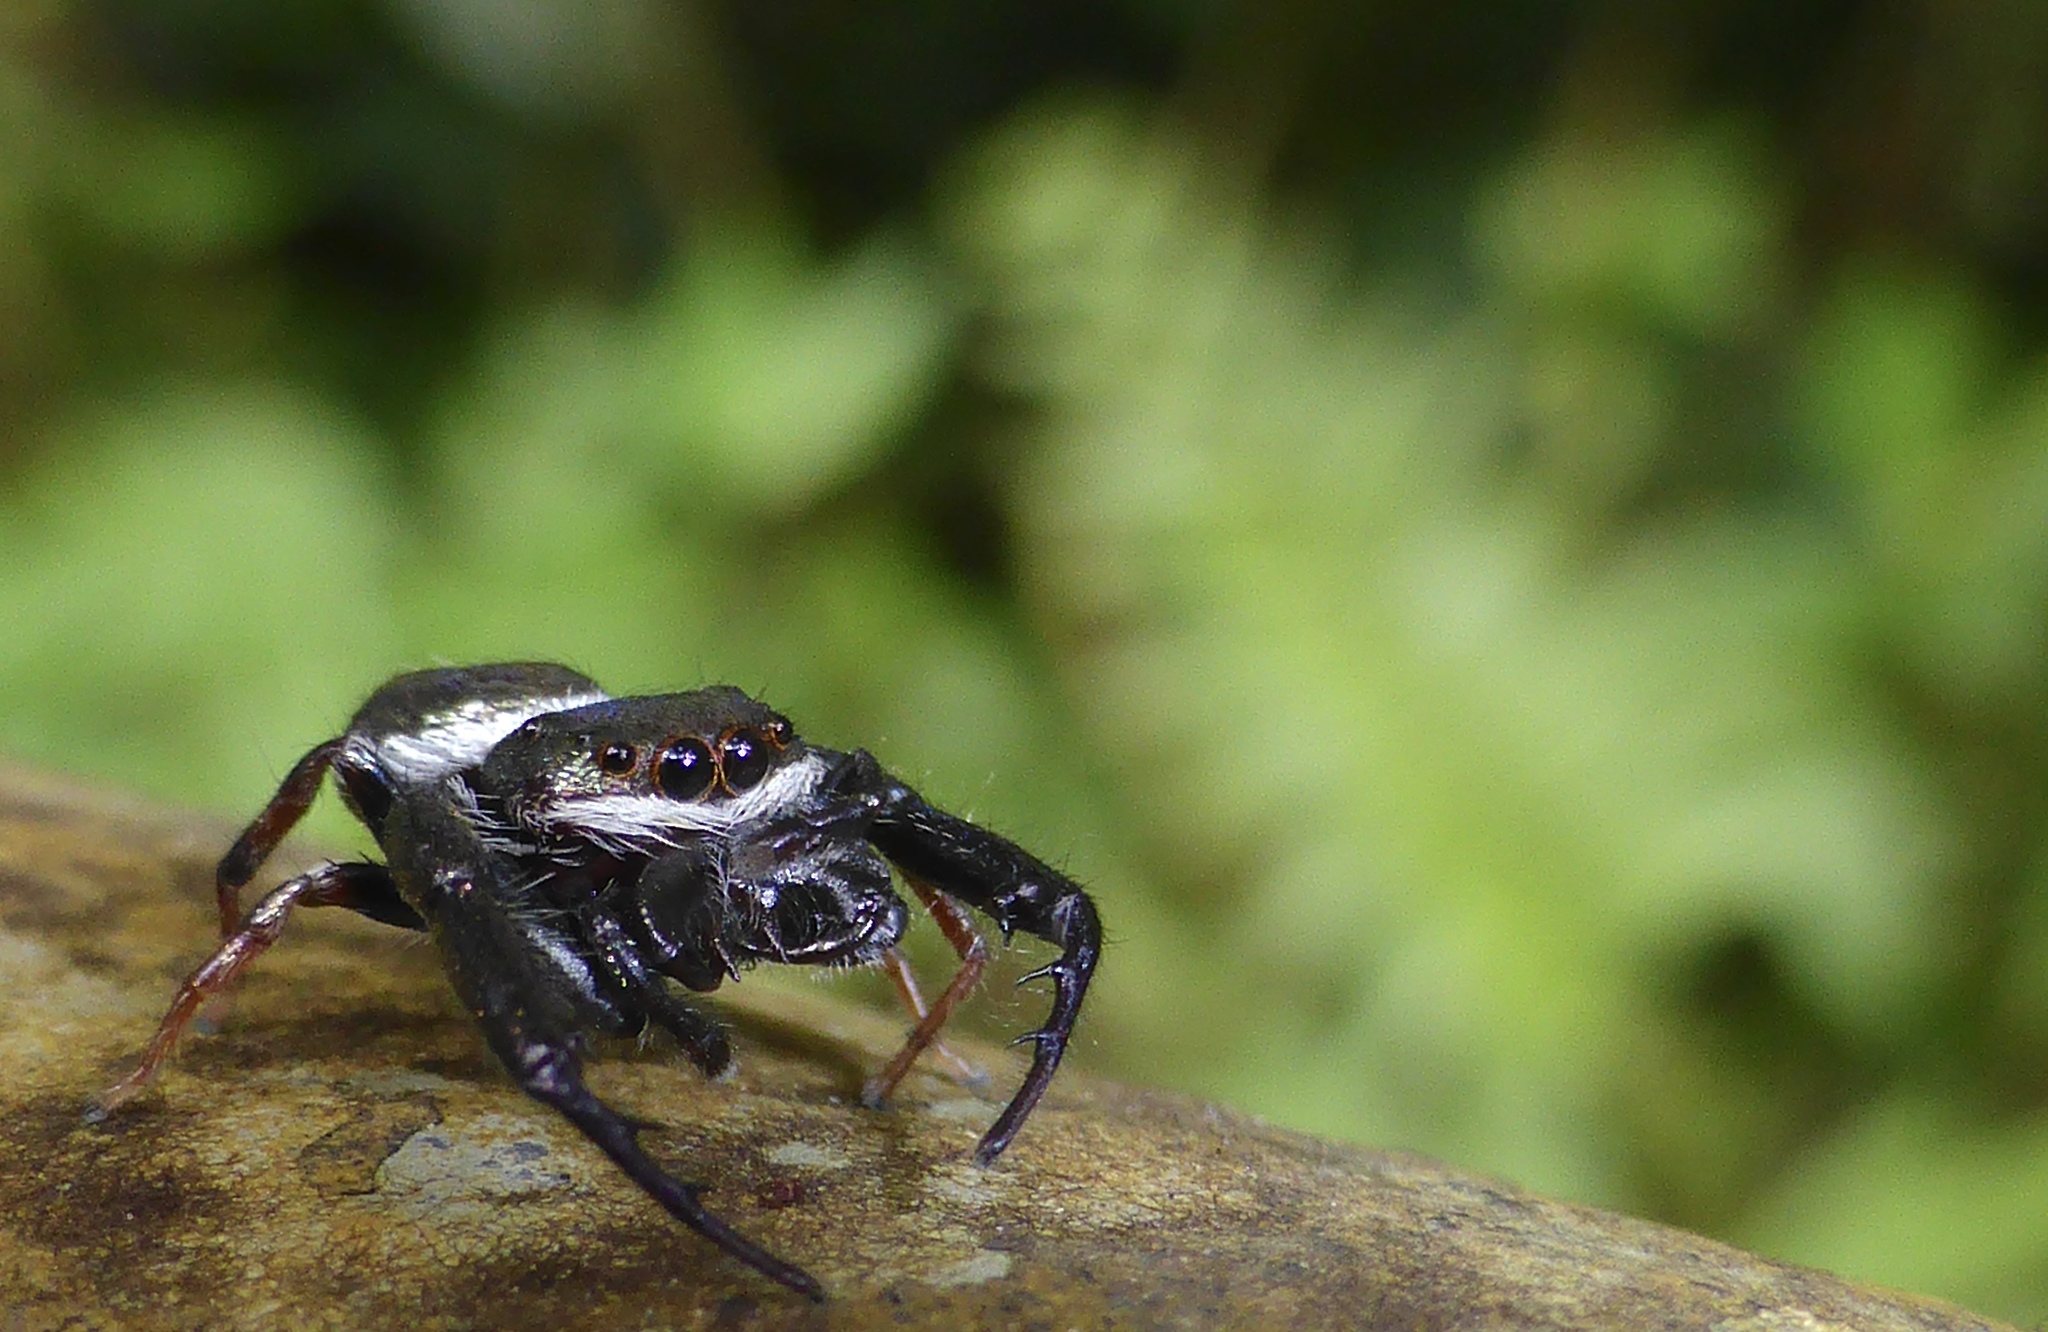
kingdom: Animalia
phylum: Arthropoda
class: Arachnida
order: Araneae
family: Salticidae
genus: Ligurra
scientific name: Ligurra latidens
